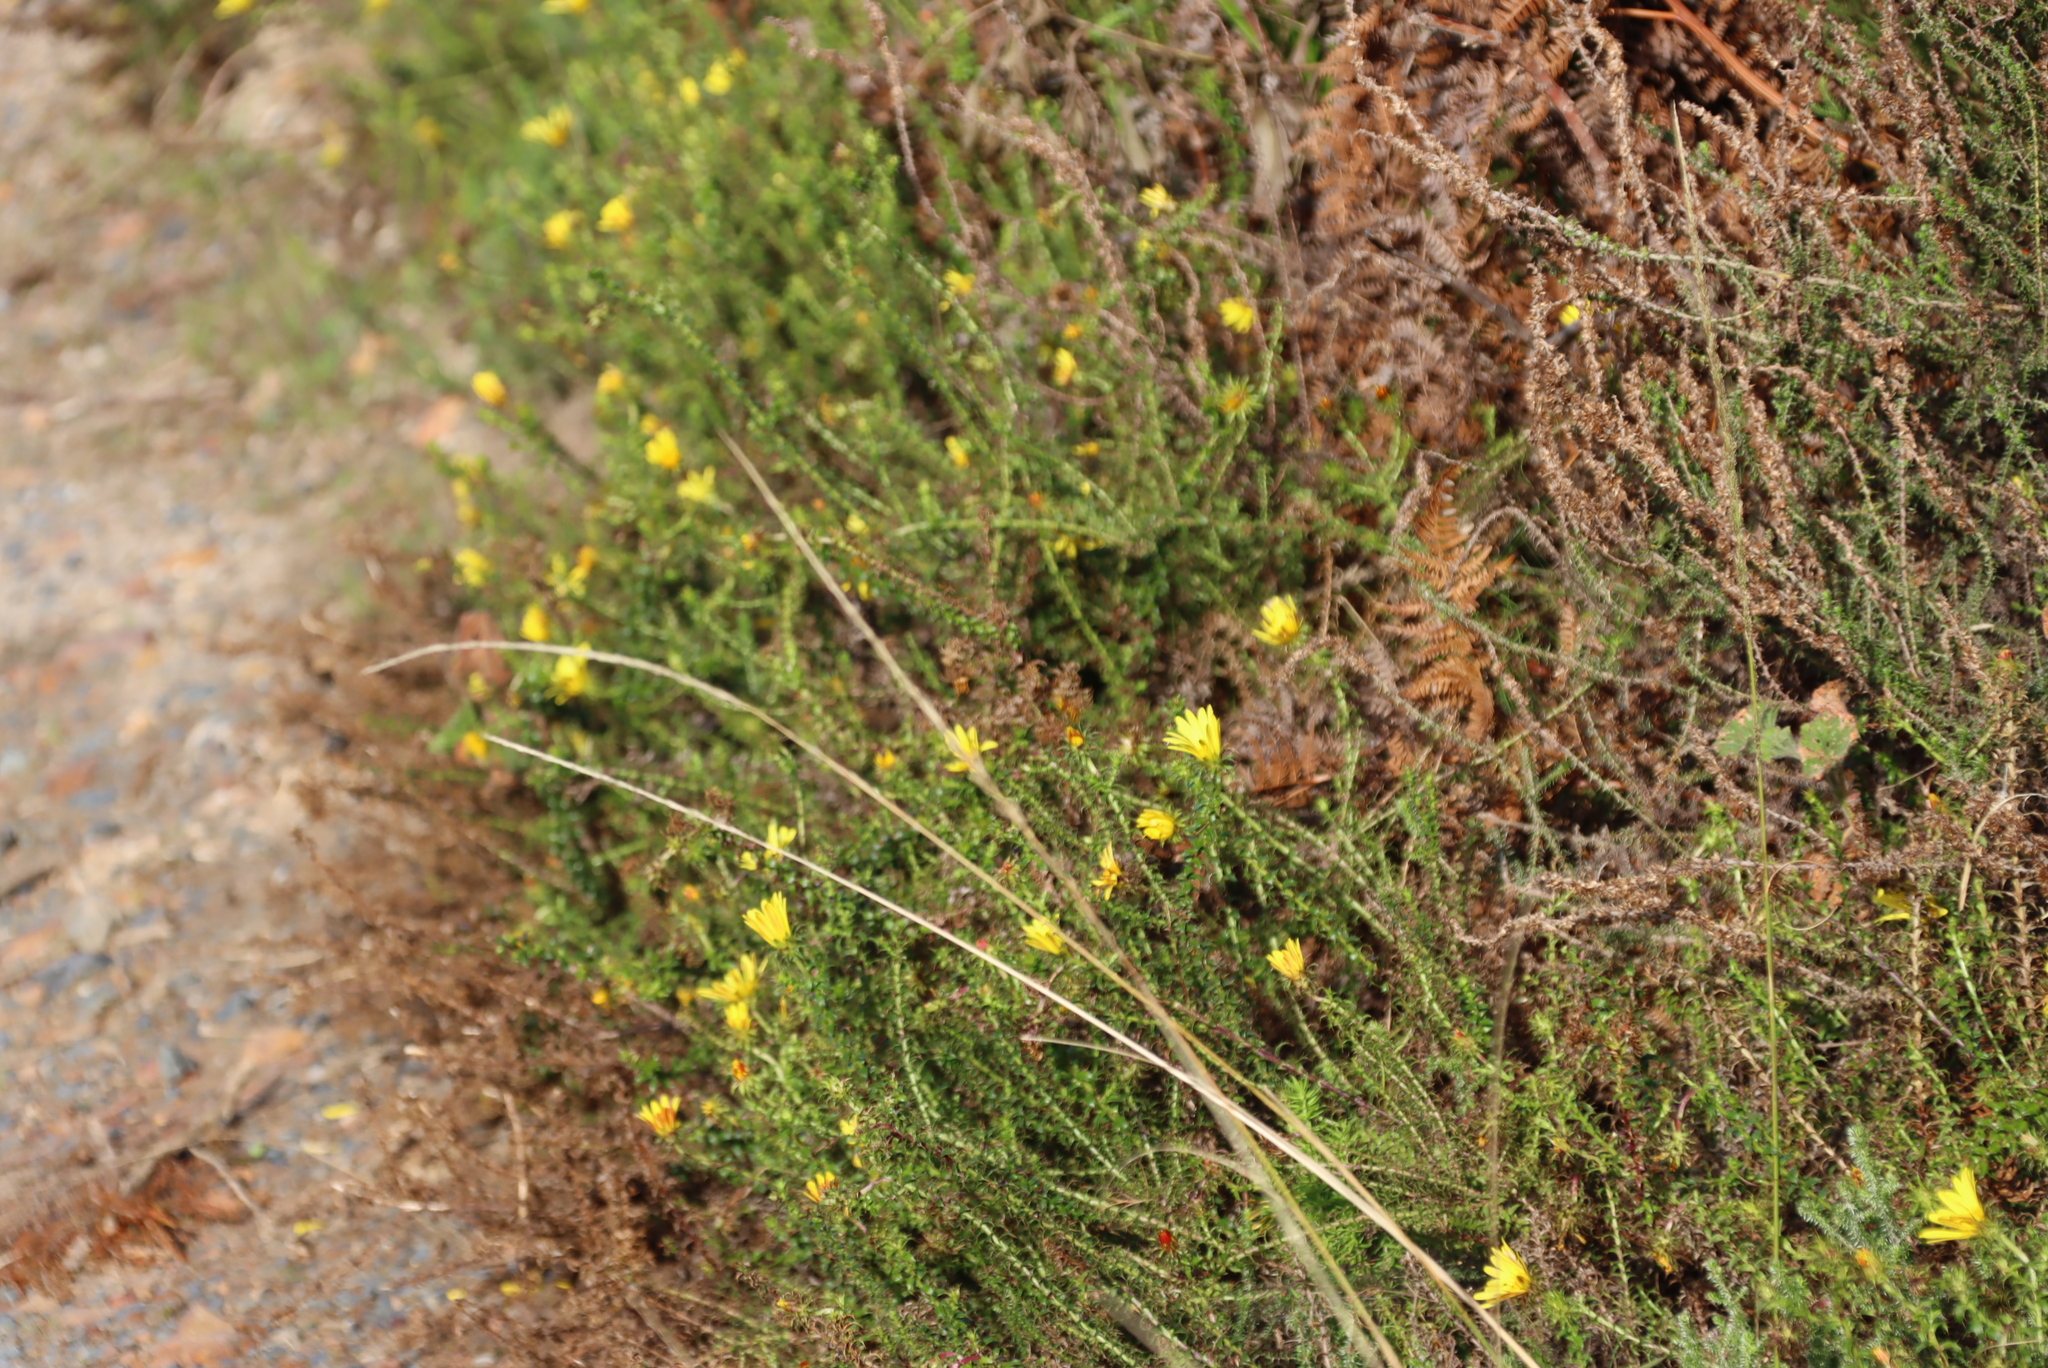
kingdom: Plantae
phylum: Tracheophyta
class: Magnoliopsida
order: Asterales
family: Asteraceae
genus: Cullumia
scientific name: Cullumia setosa
